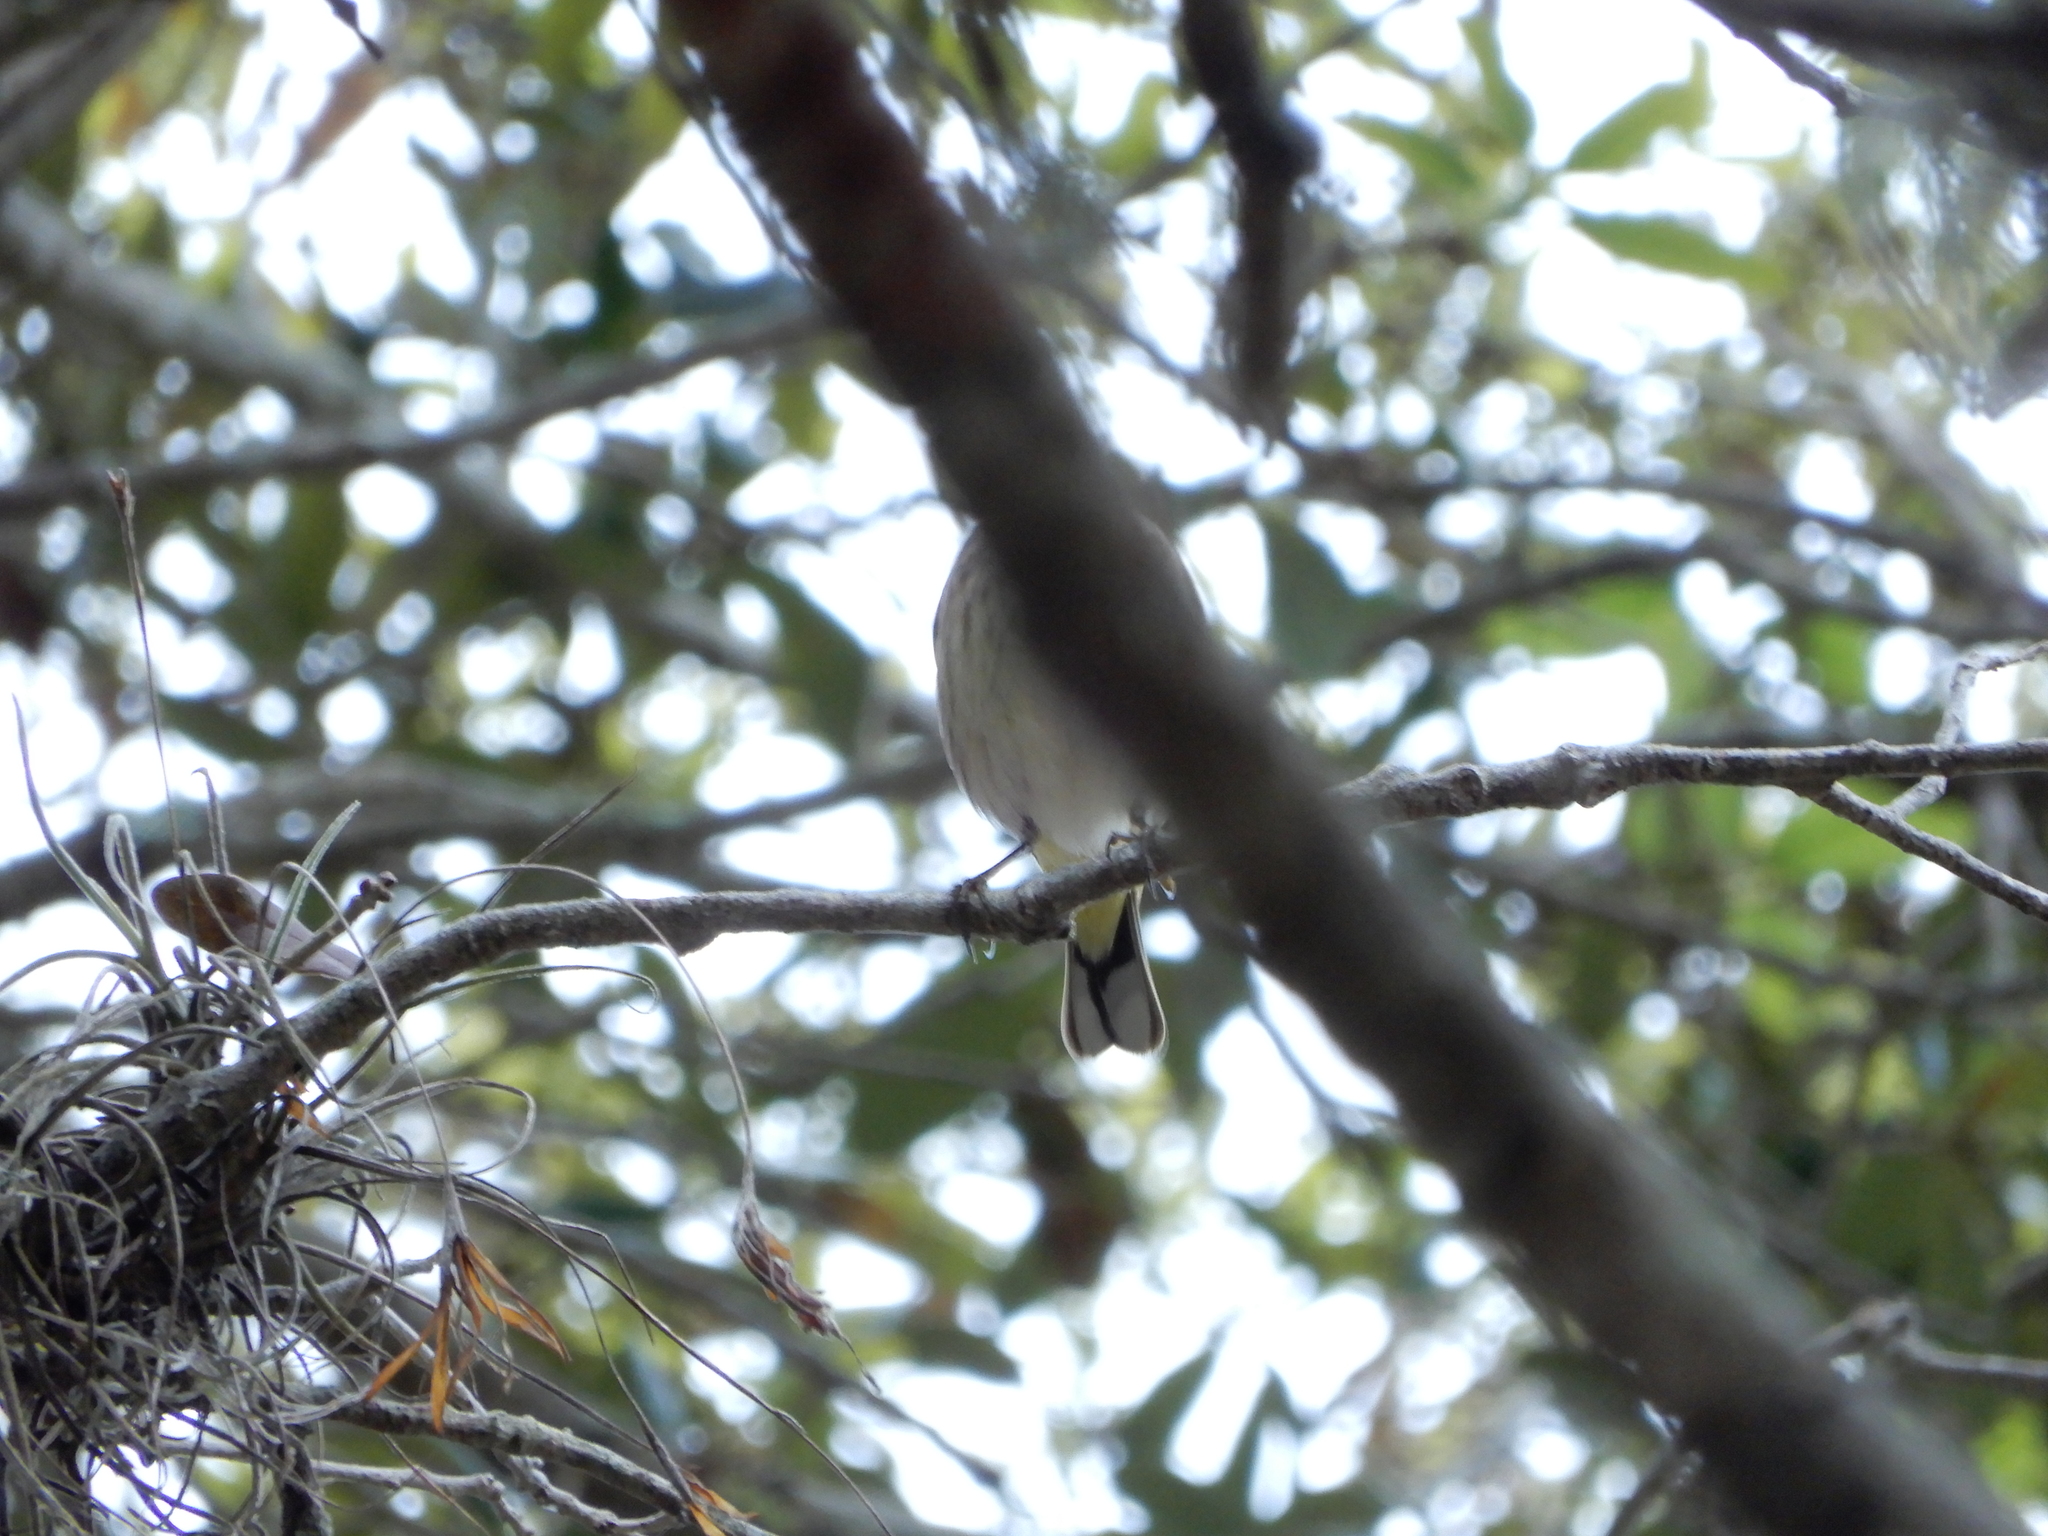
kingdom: Animalia
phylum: Chordata
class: Aves
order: Passeriformes
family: Parulidae
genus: Setophaga
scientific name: Setophaga palmarum
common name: Palm warbler
